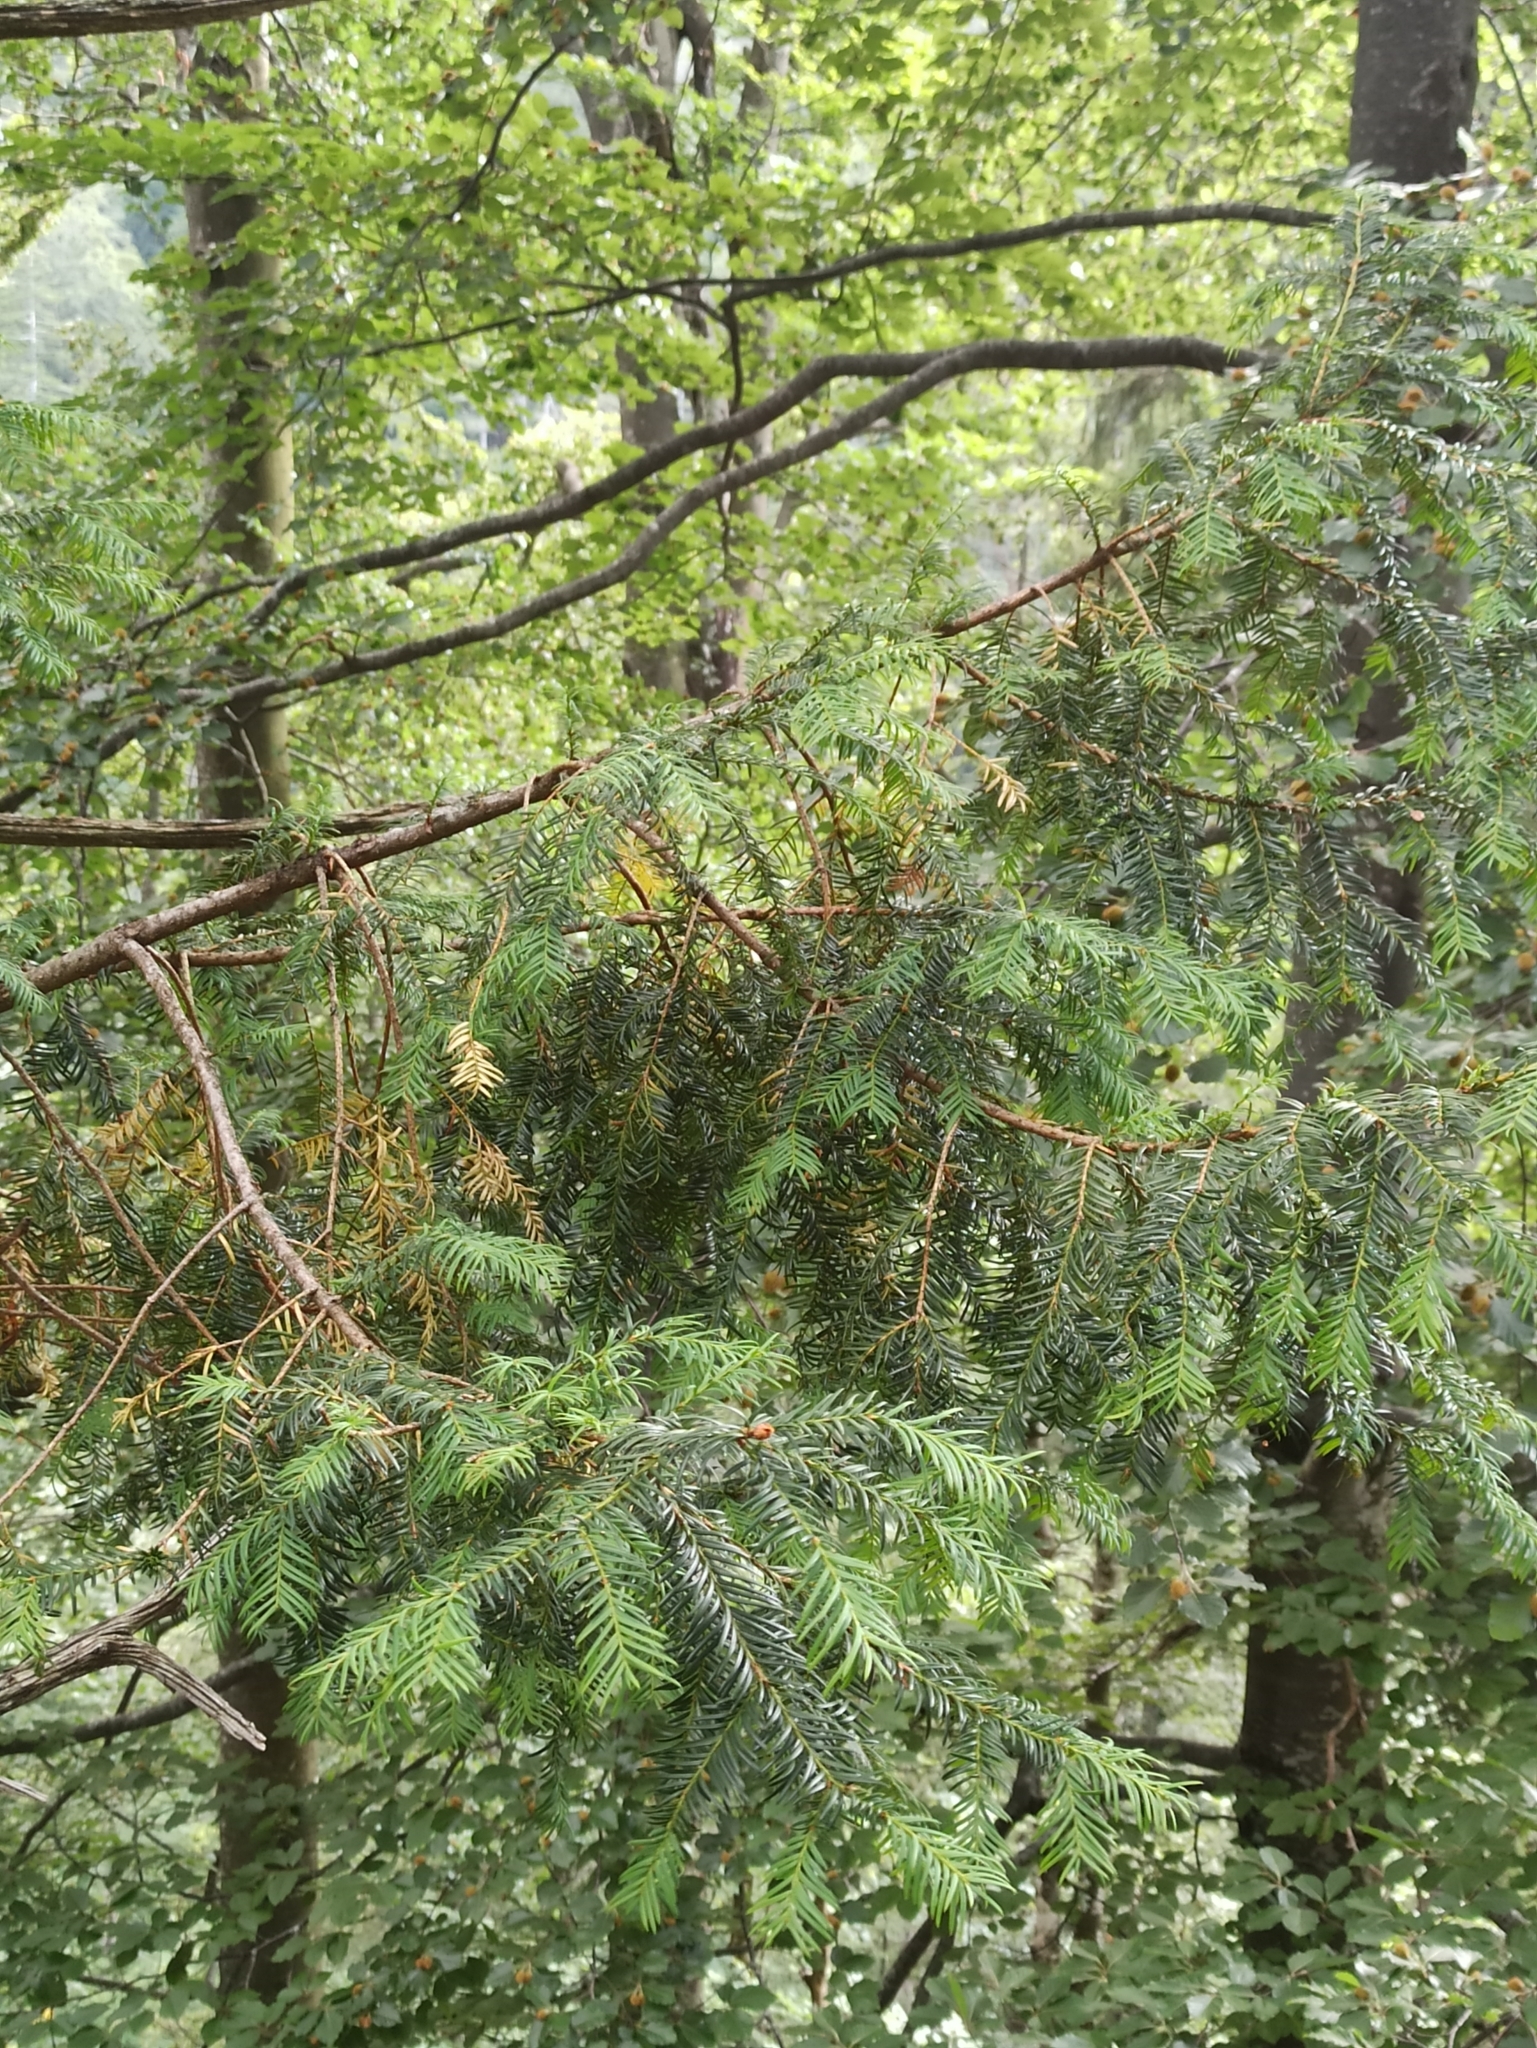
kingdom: Plantae
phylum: Tracheophyta
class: Pinopsida
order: Pinales
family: Taxaceae
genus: Taxus
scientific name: Taxus baccata
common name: Yew
